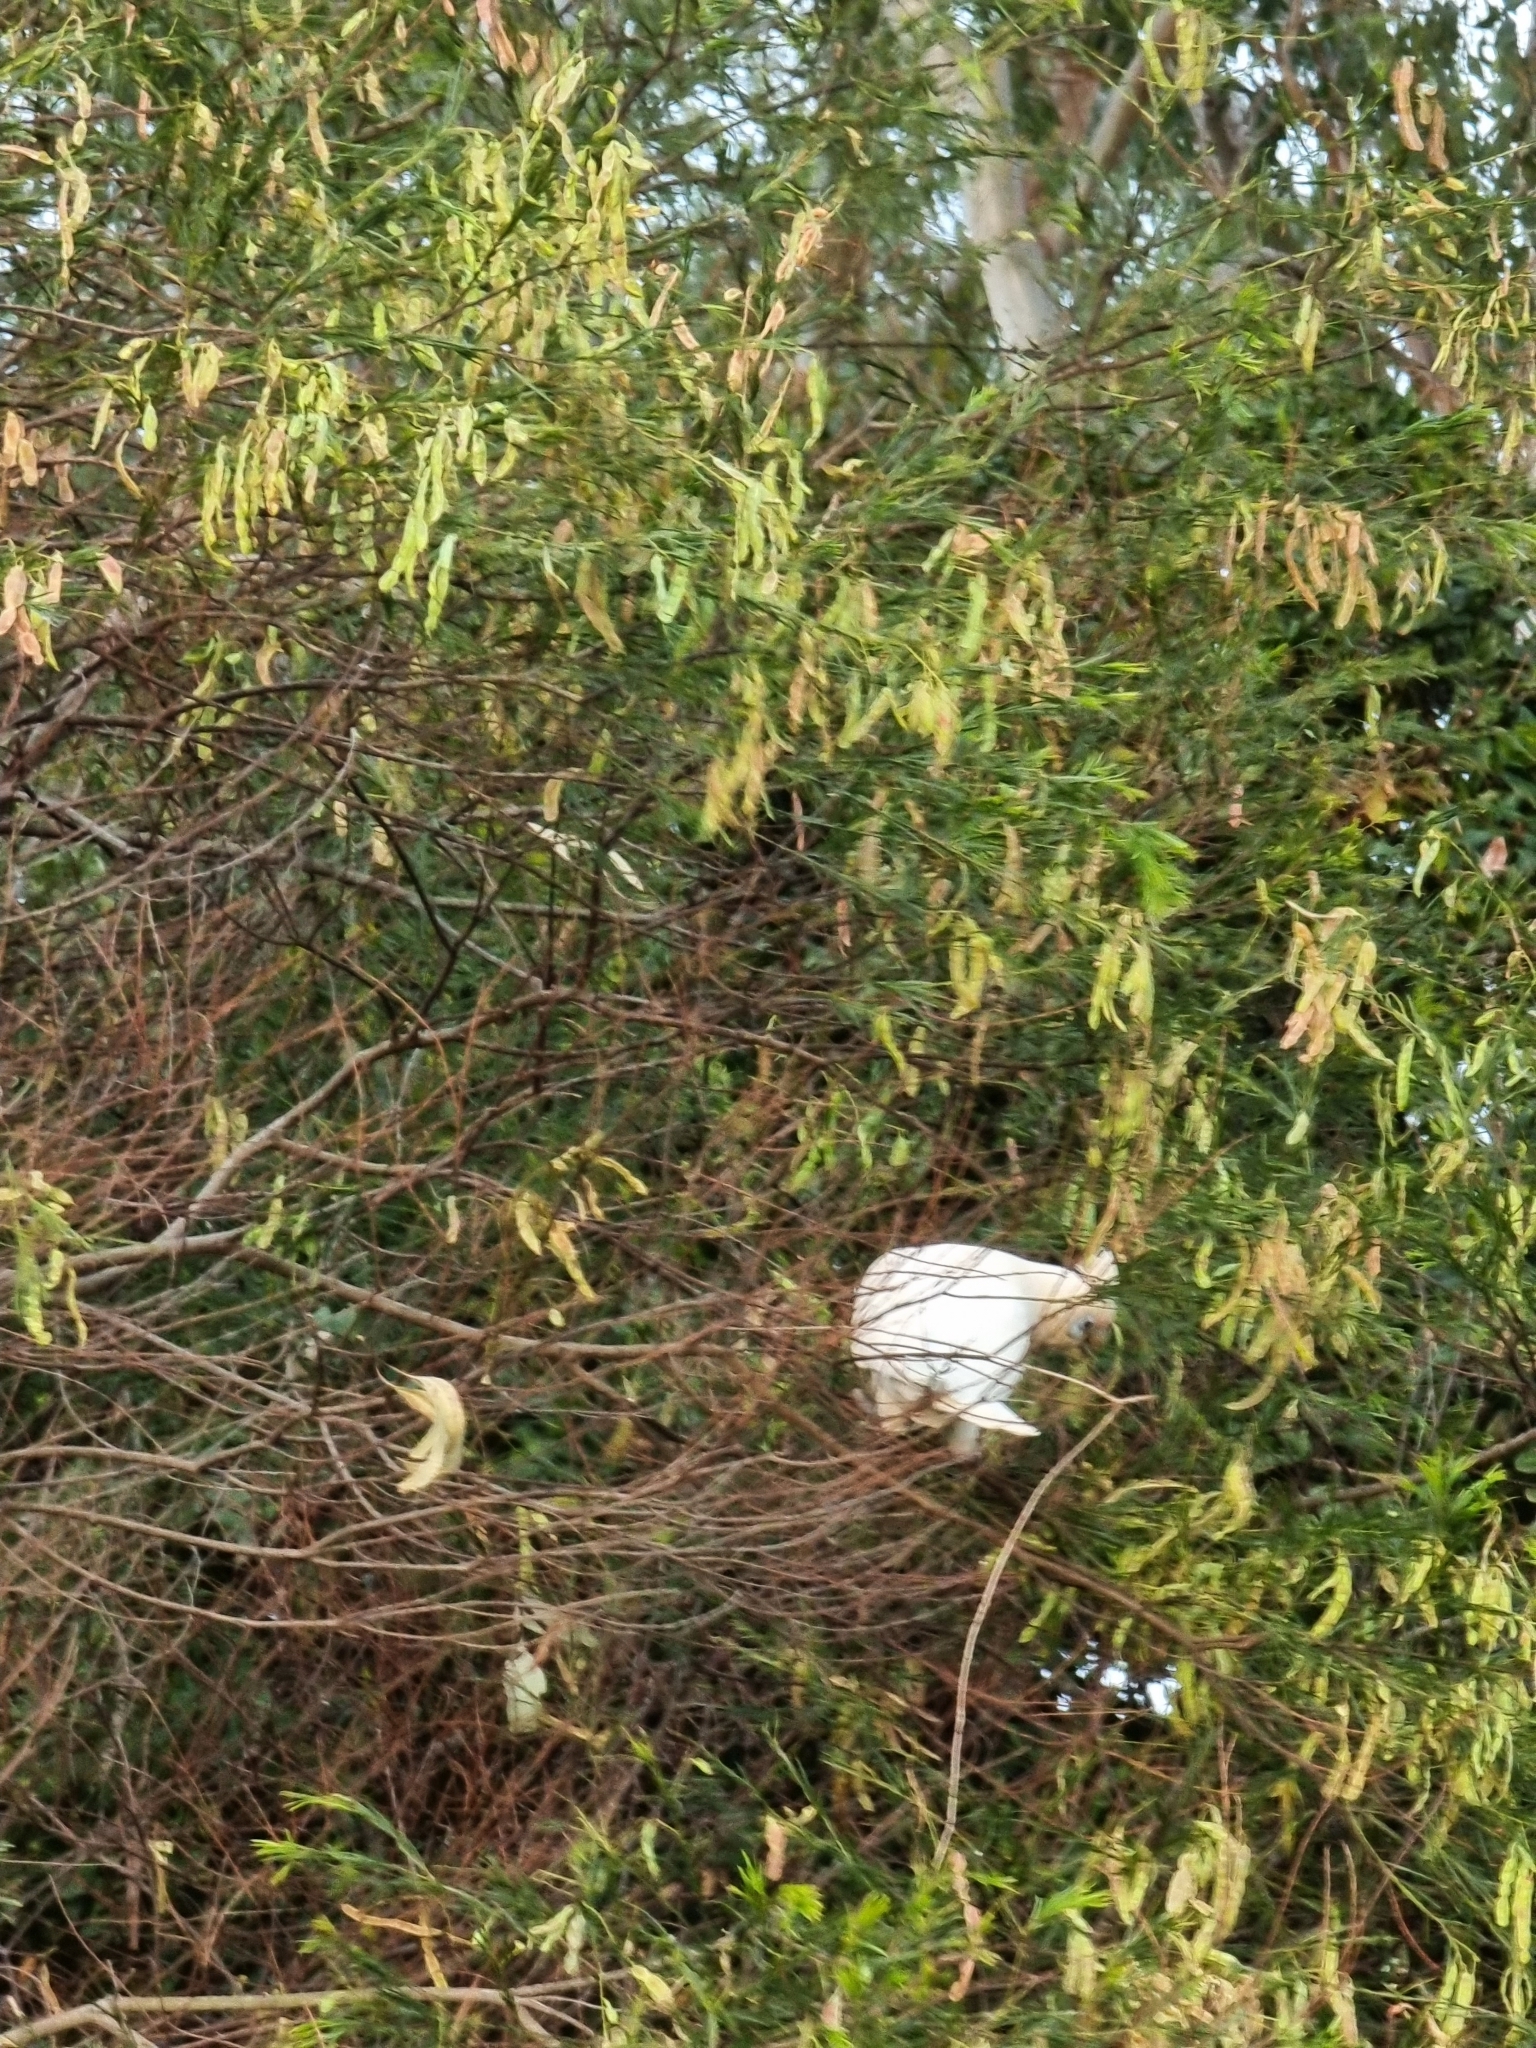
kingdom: Animalia
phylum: Chordata
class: Aves
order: Psittaciformes
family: Psittacidae
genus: Cacatua
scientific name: Cacatua sanguinea
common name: Little corella
